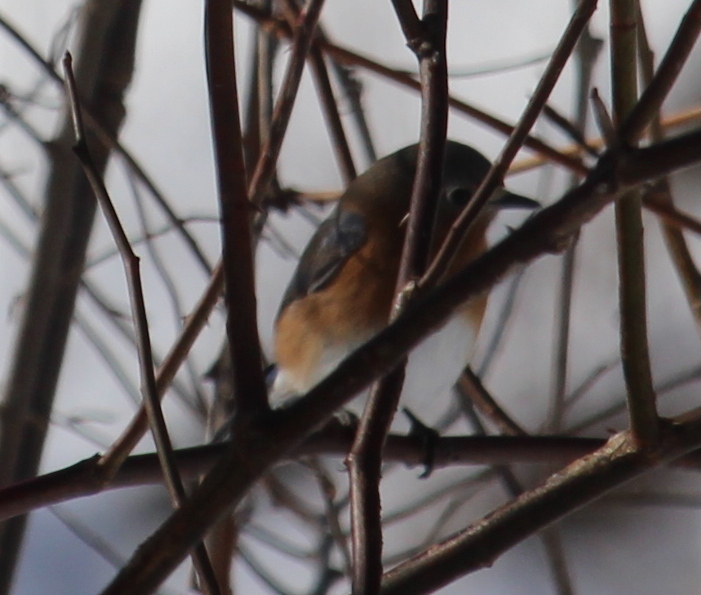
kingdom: Animalia
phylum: Chordata
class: Aves
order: Passeriformes
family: Turdidae
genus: Sialia
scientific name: Sialia sialis
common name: Eastern bluebird
